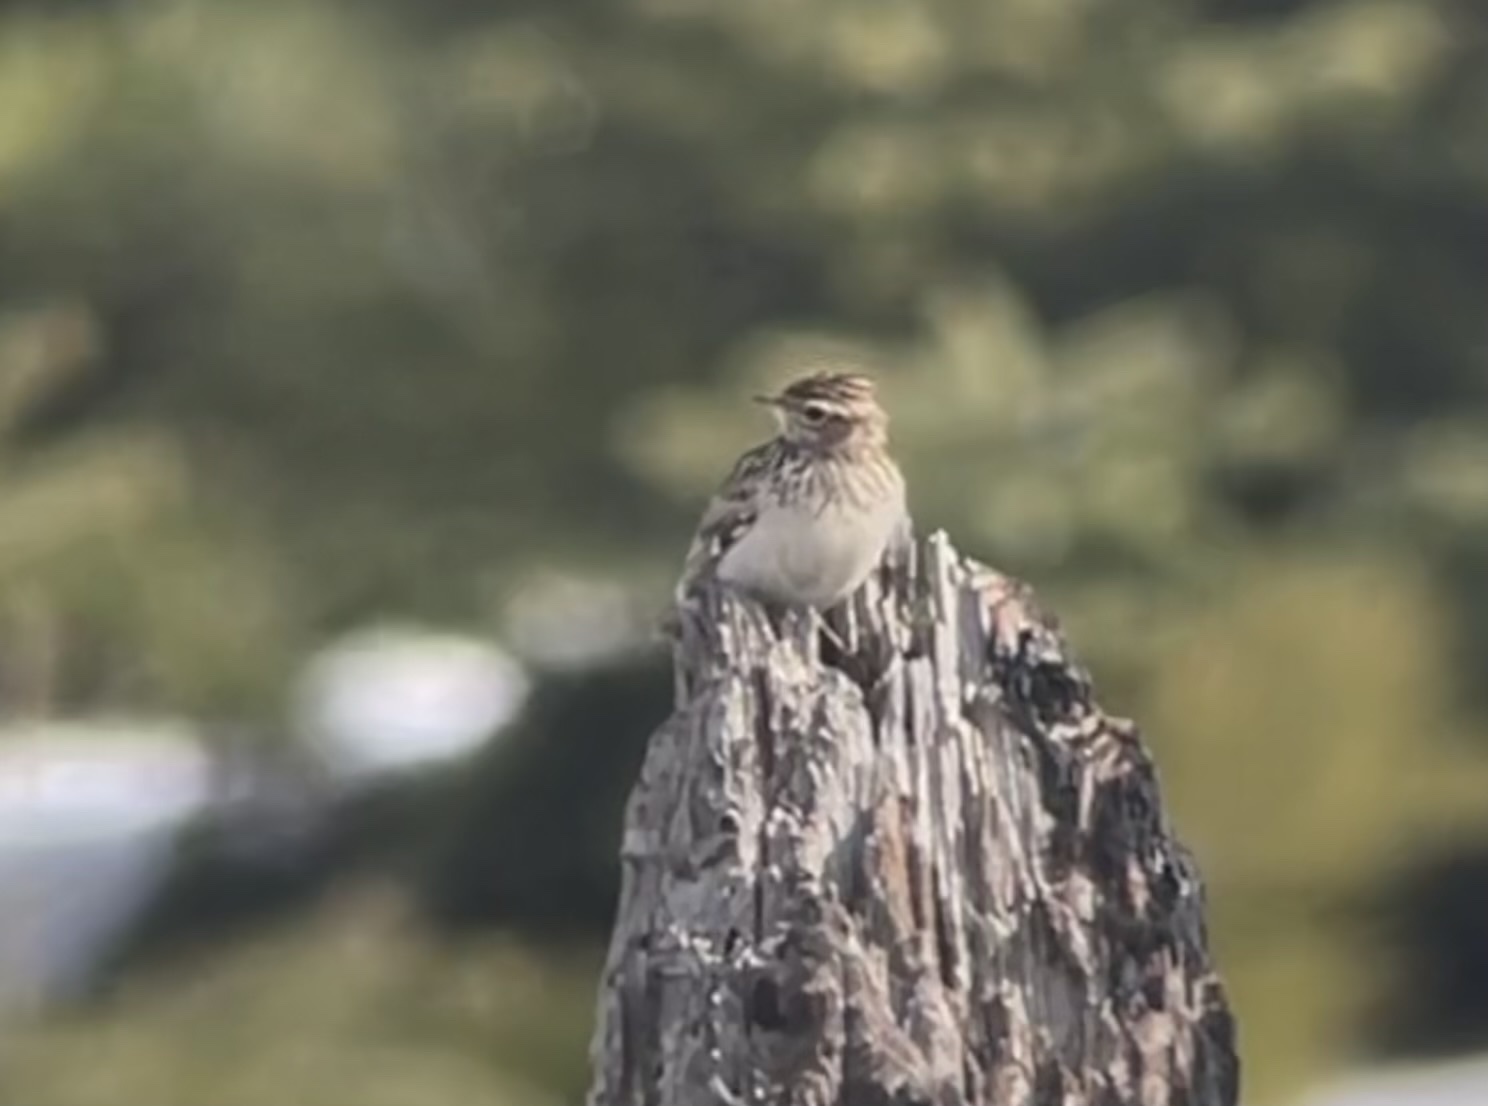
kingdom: Animalia
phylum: Chordata
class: Aves
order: Passeriformes
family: Alaudidae
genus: Lullula
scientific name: Lullula arborea
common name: Woodlark
